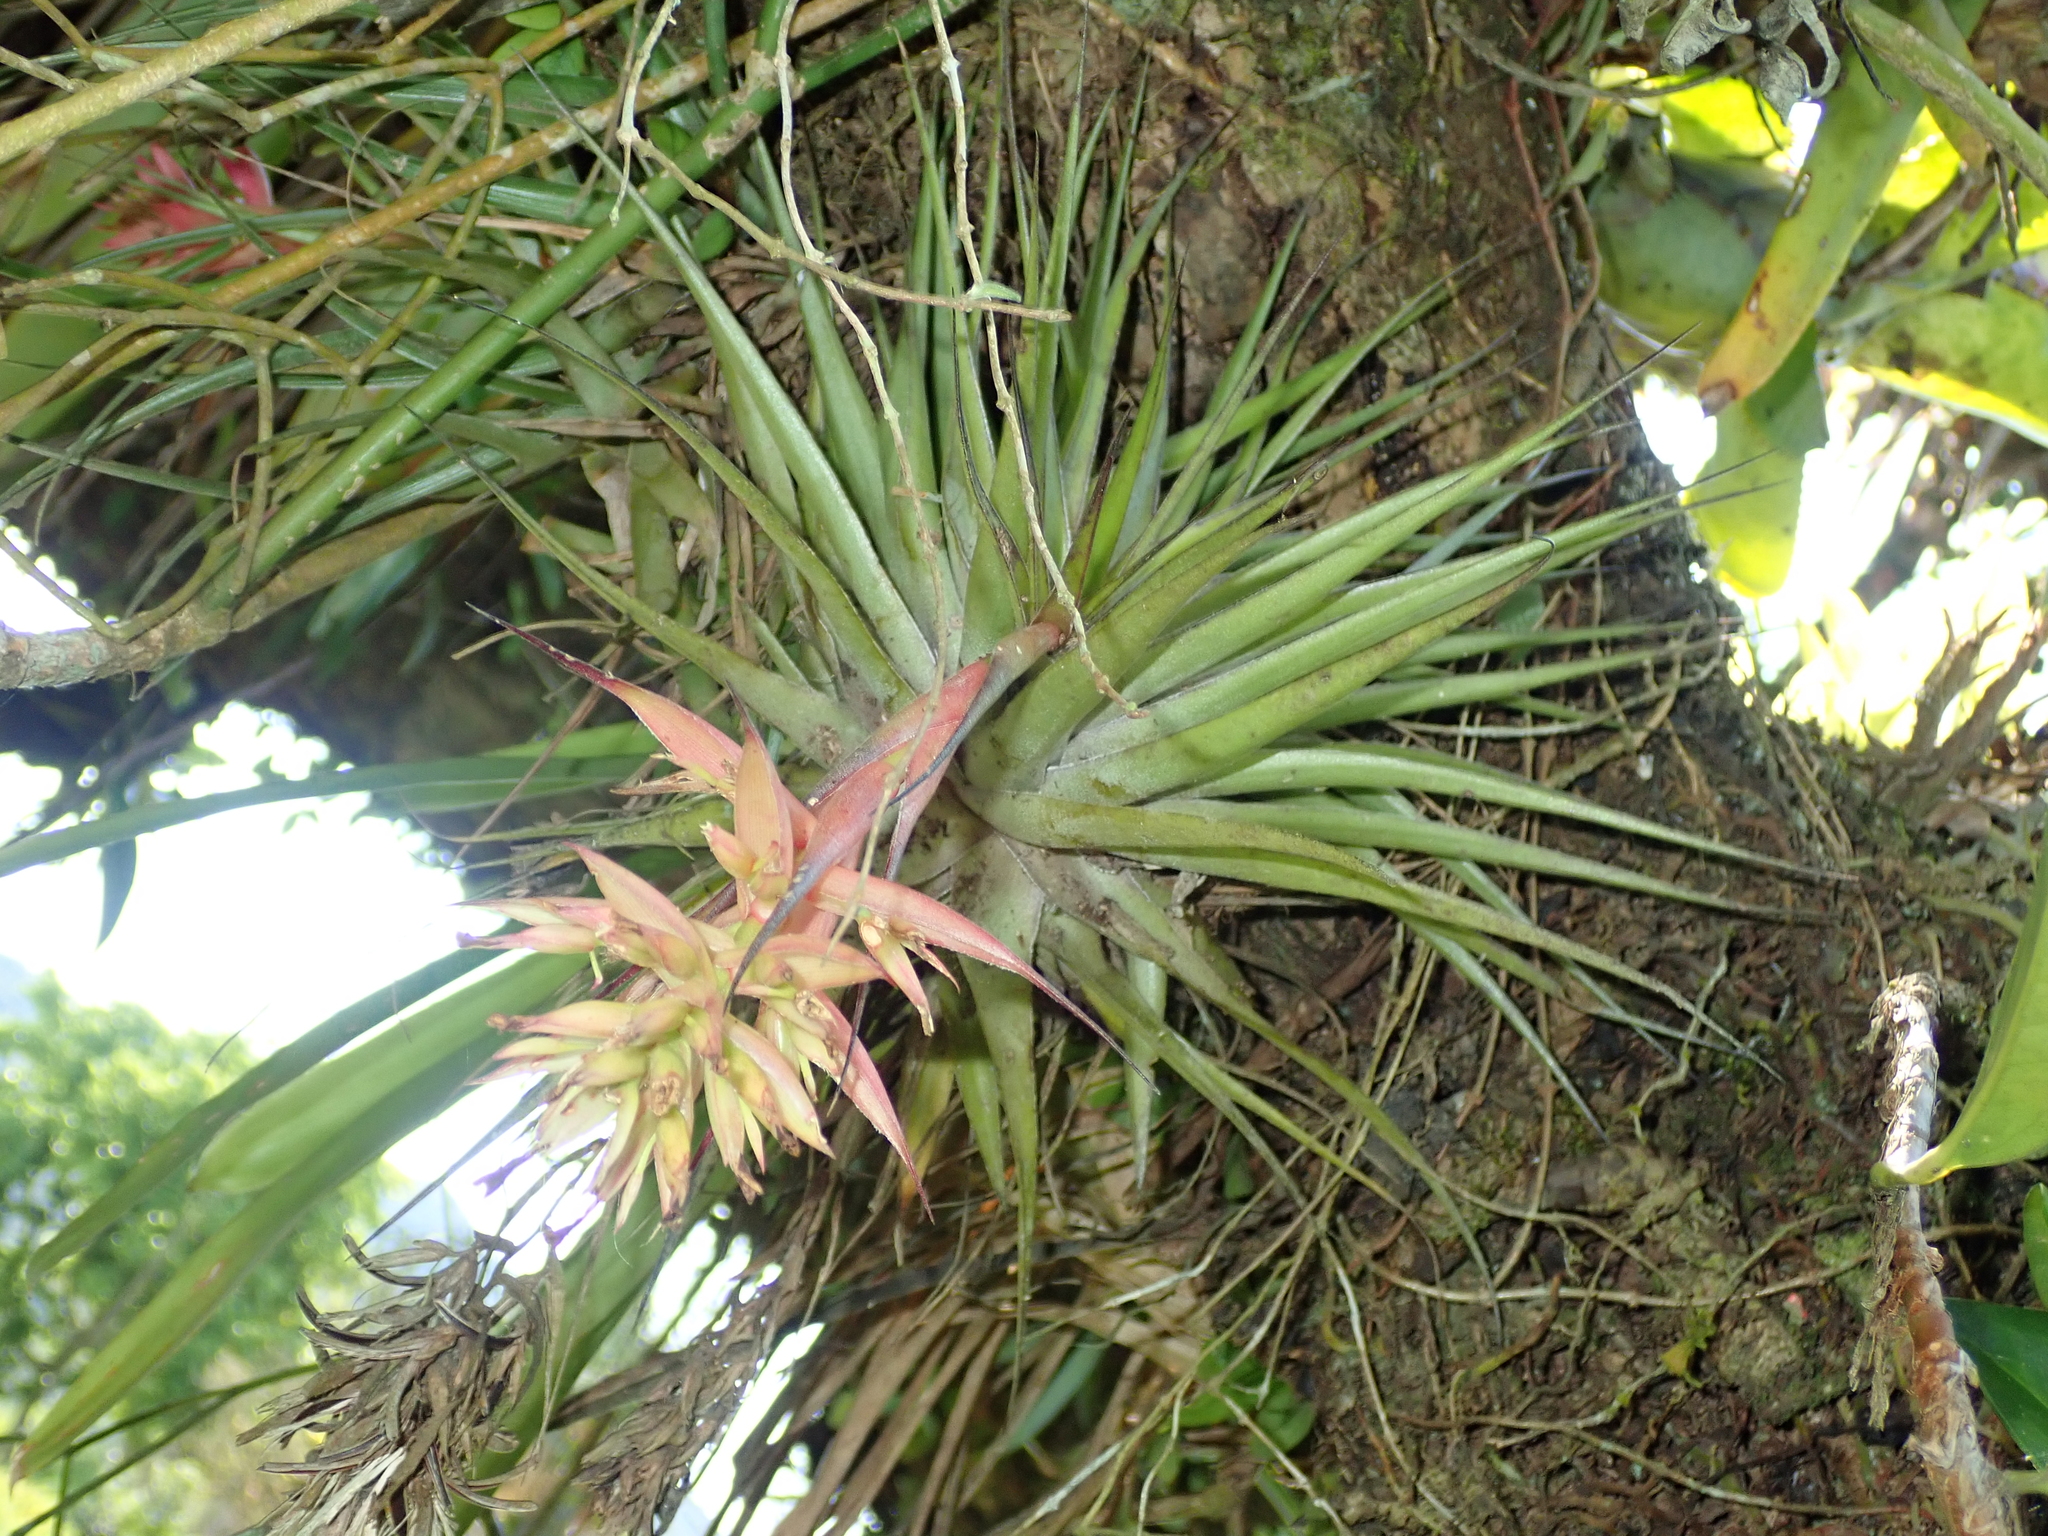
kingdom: Plantae
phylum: Tracheophyta
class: Liliopsida
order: Poales
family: Bromeliaceae
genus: Tillandsia
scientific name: Tillandsia geminiflora
